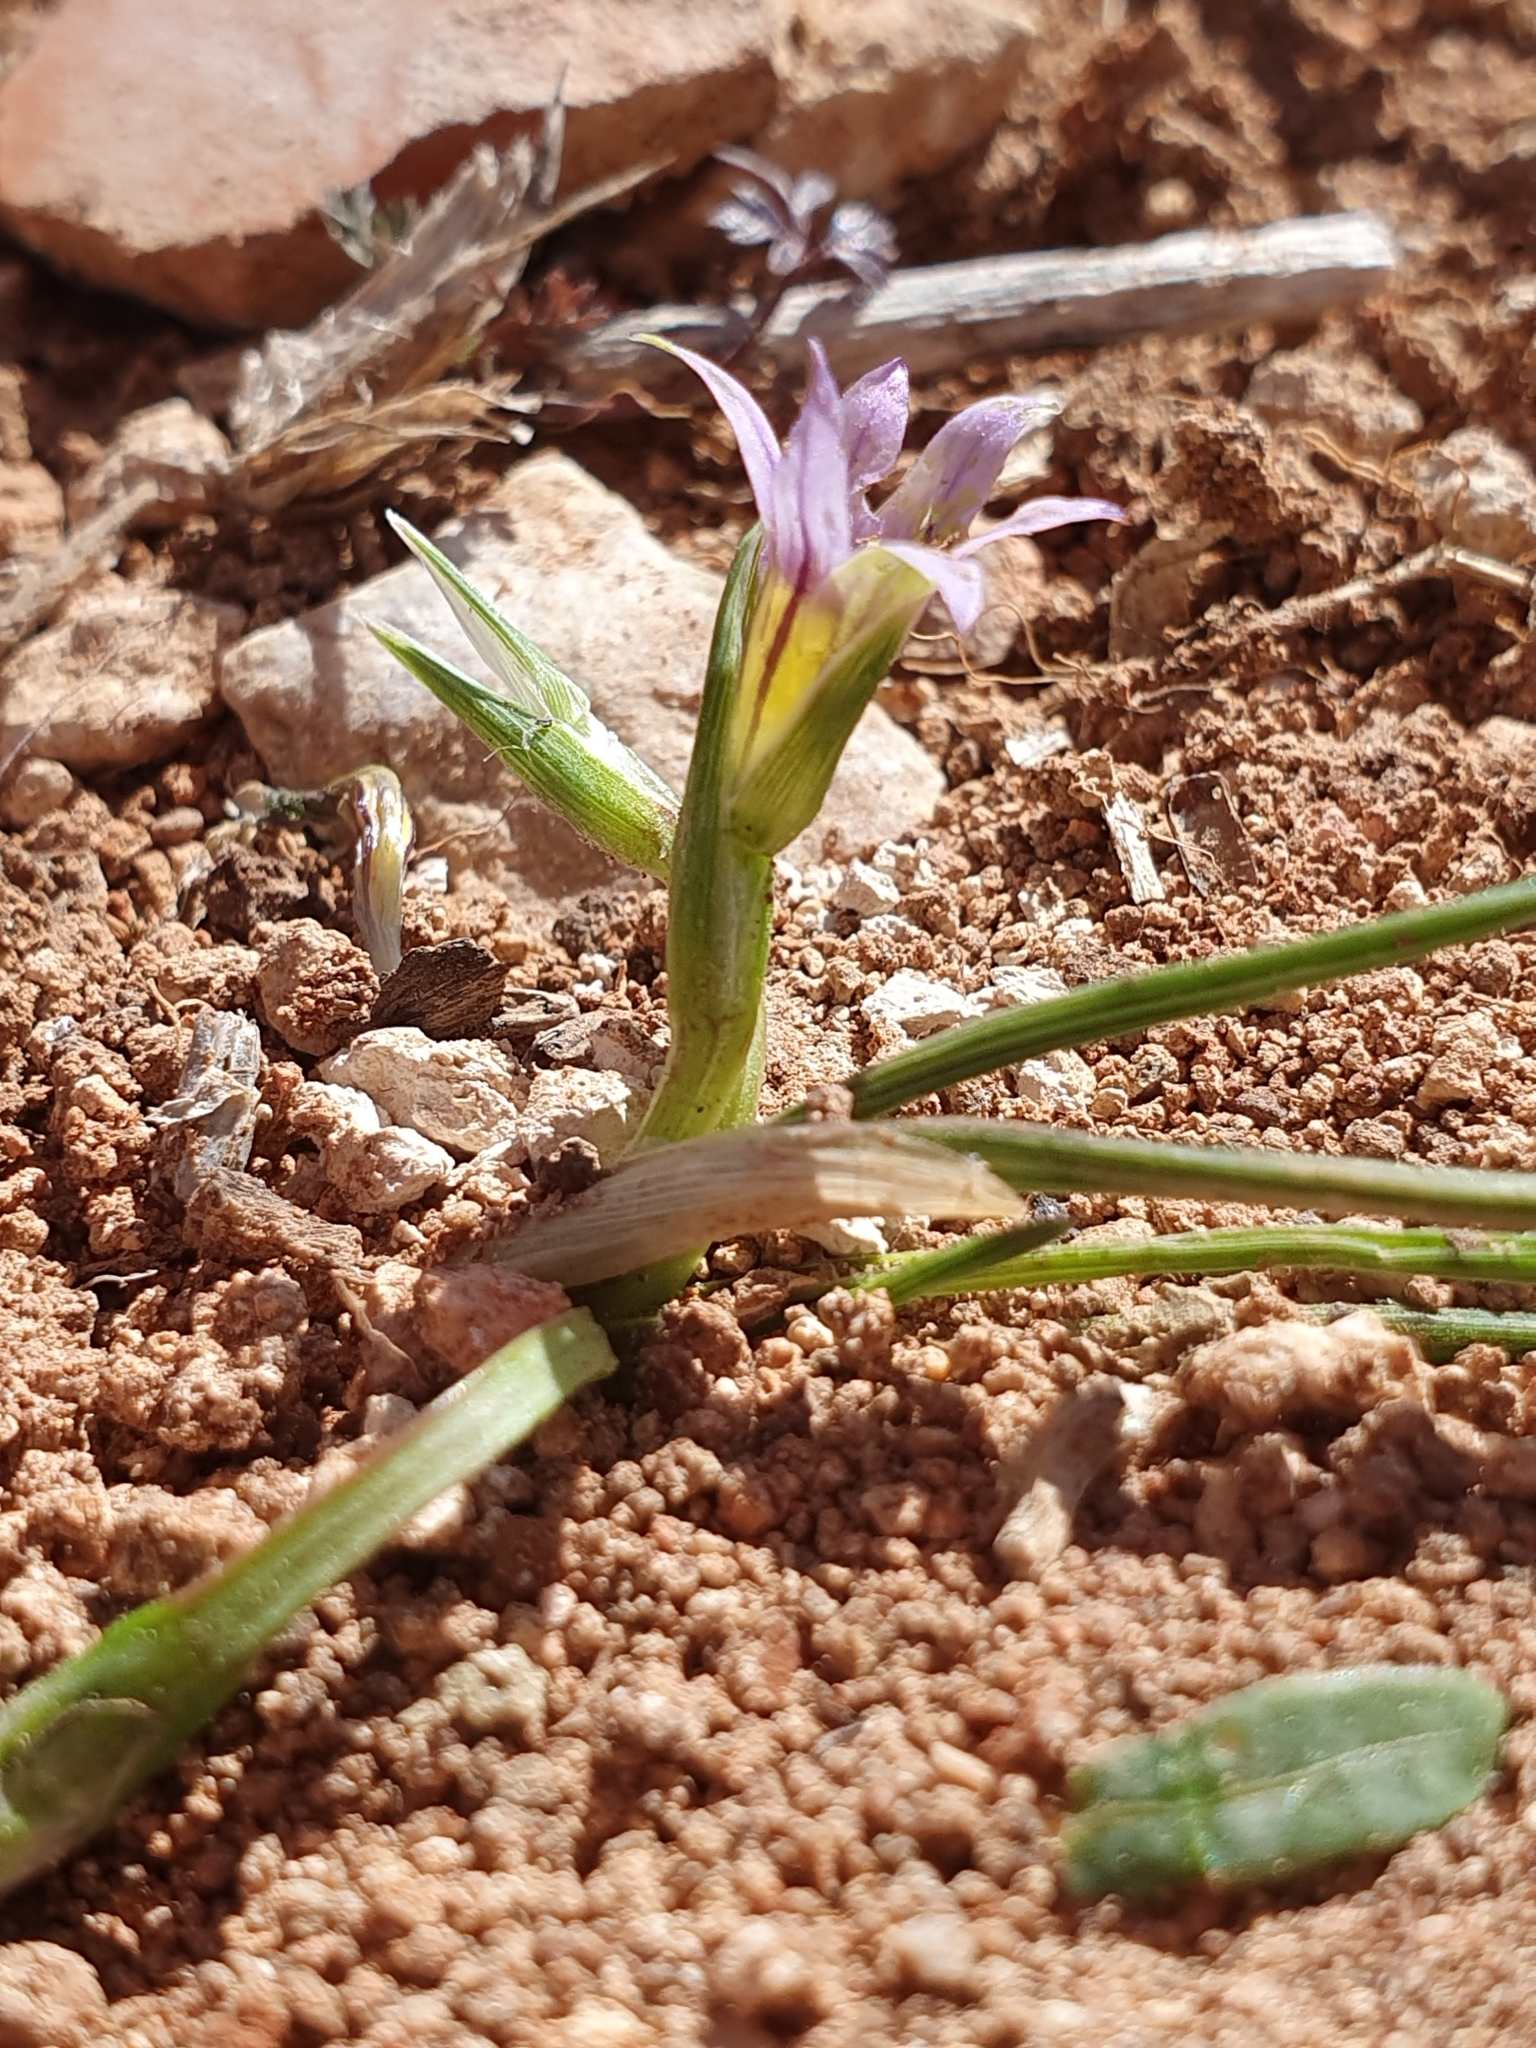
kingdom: Plantae
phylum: Tracheophyta
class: Liliopsida
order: Asparagales
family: Iridaceae
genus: Romulea
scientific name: Romulea ramiflora
